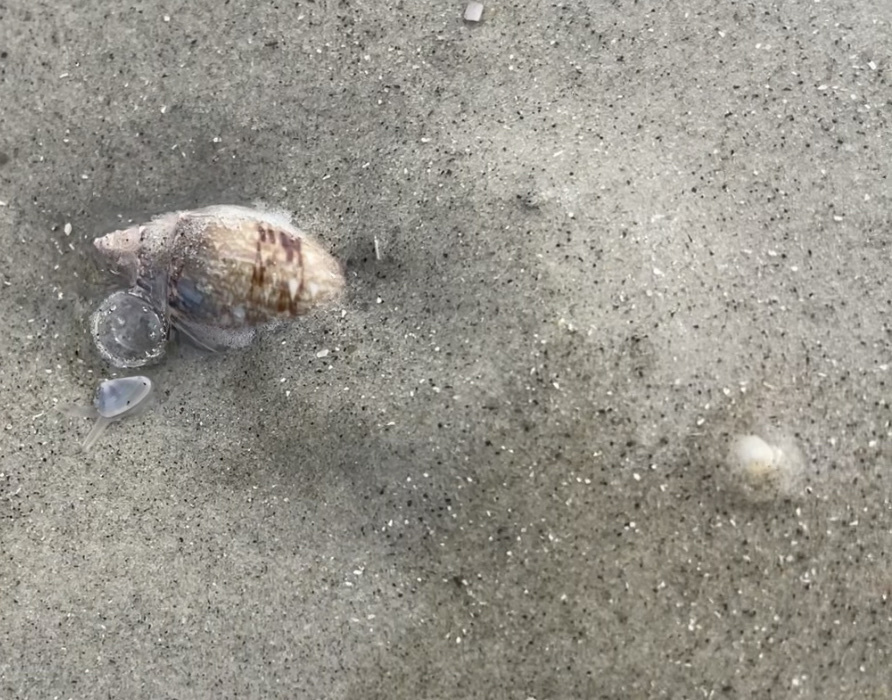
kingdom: Animalia
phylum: Mollusca
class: Gastropoda
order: Neogastropoda
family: Olividae
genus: Oliva
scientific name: Oliva sayana
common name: Lettered olive
